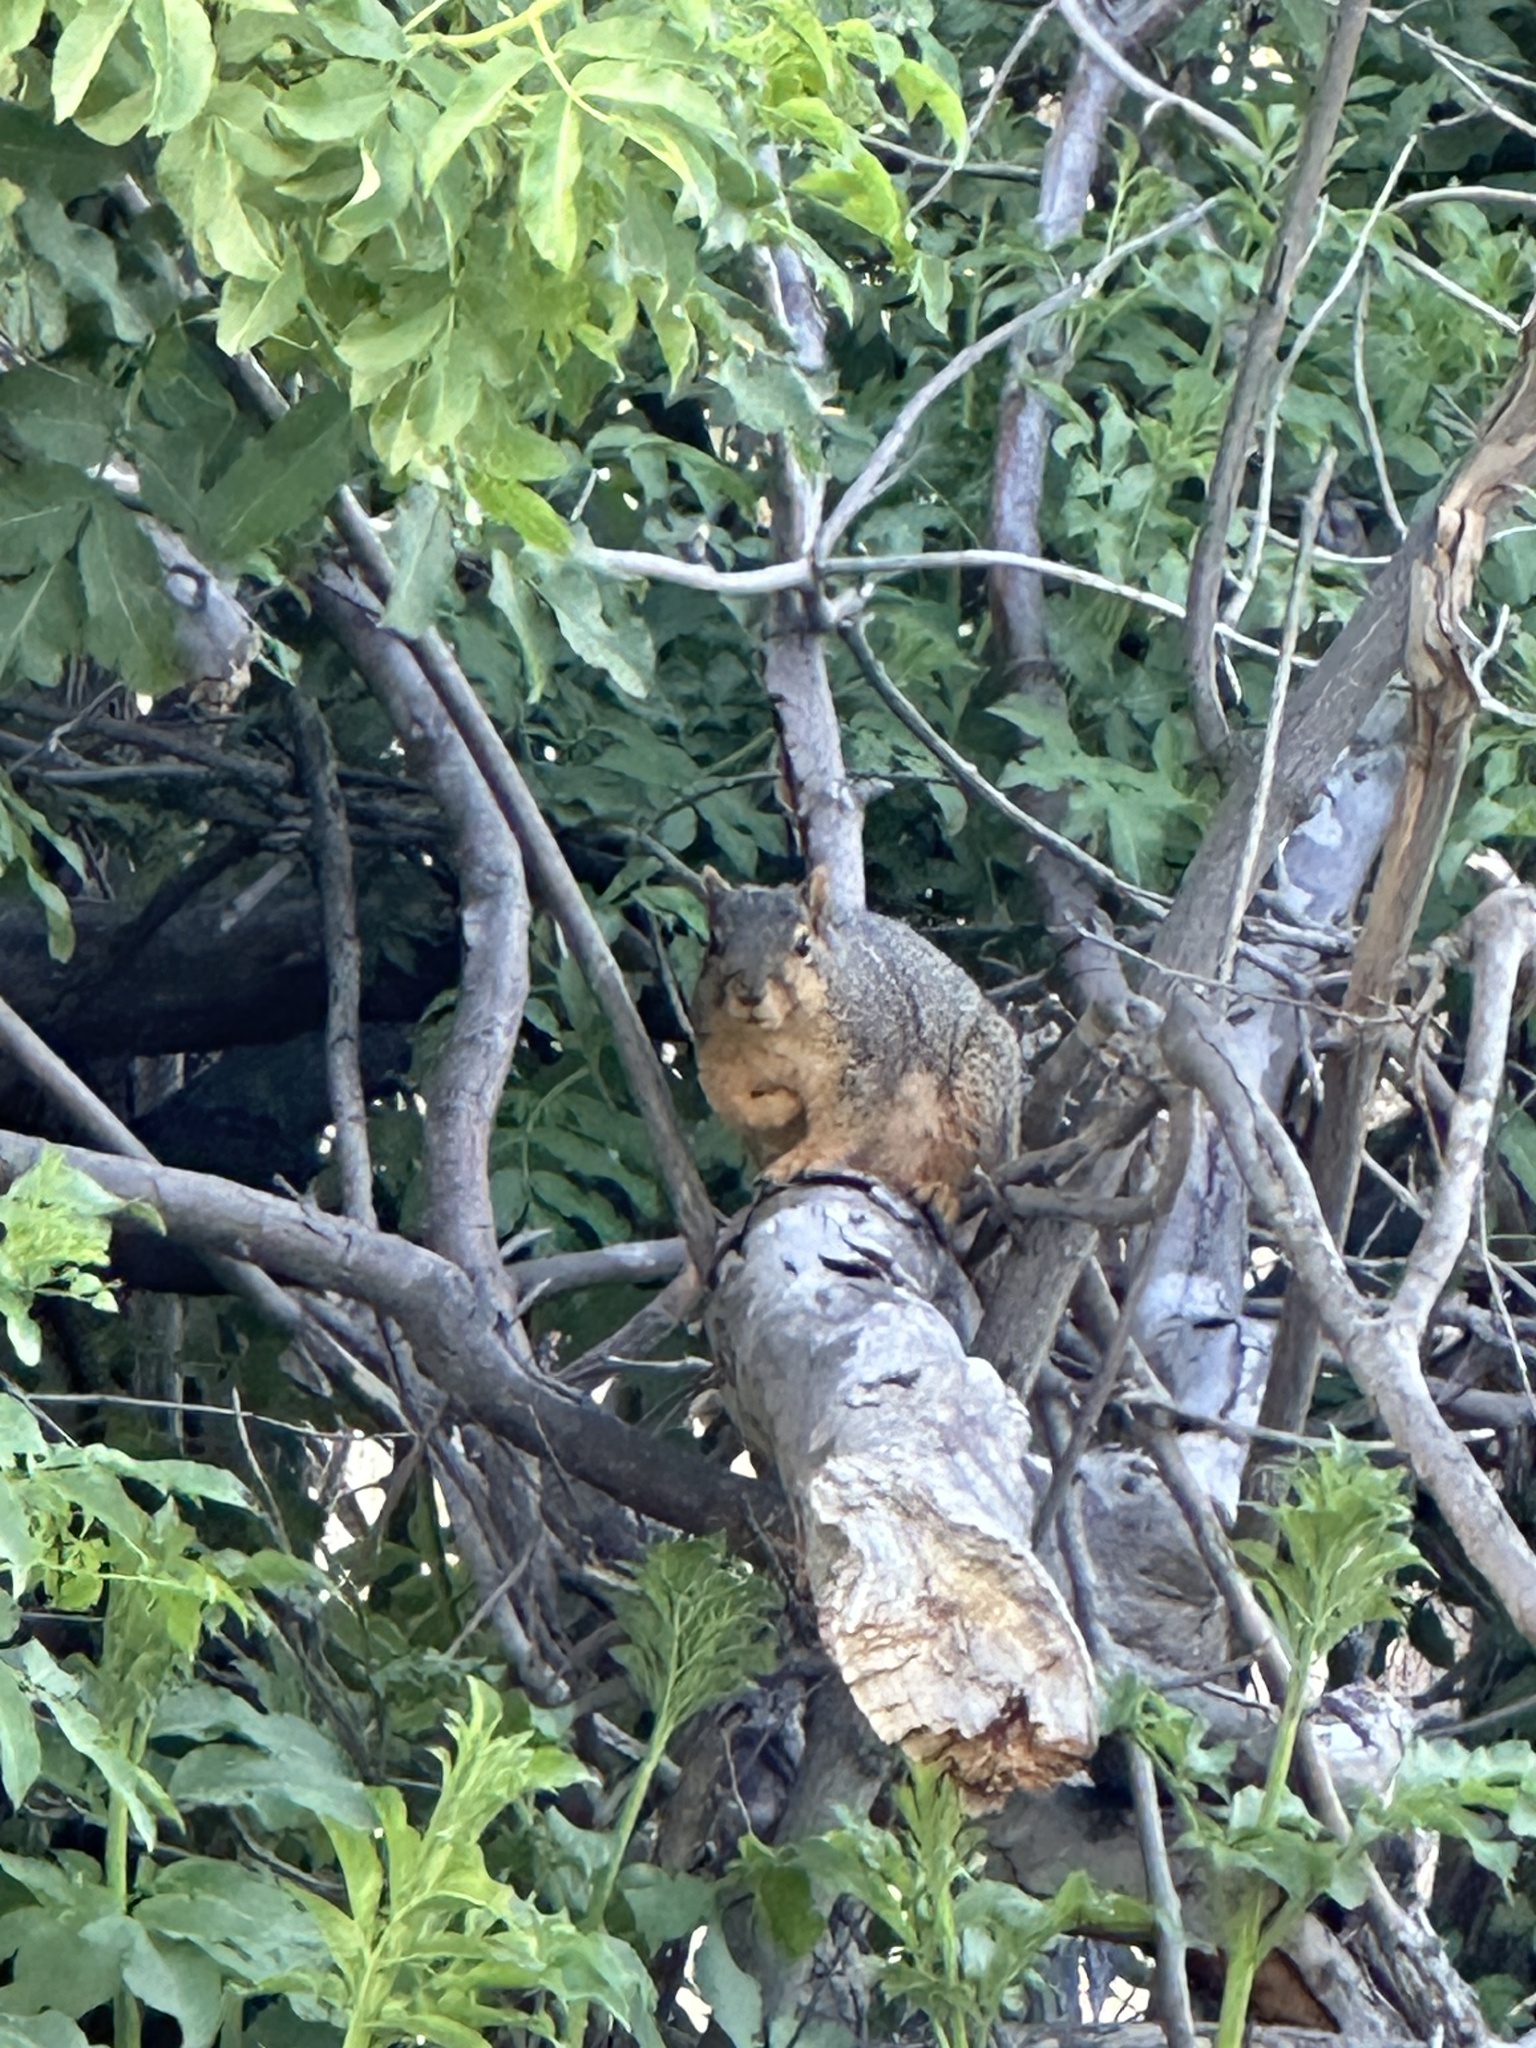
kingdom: Animalia
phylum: Chordata
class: Mammalia
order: Rodentia
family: Sciuridae
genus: Sciurus
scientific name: Sciurus niger
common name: Fox squirrel
